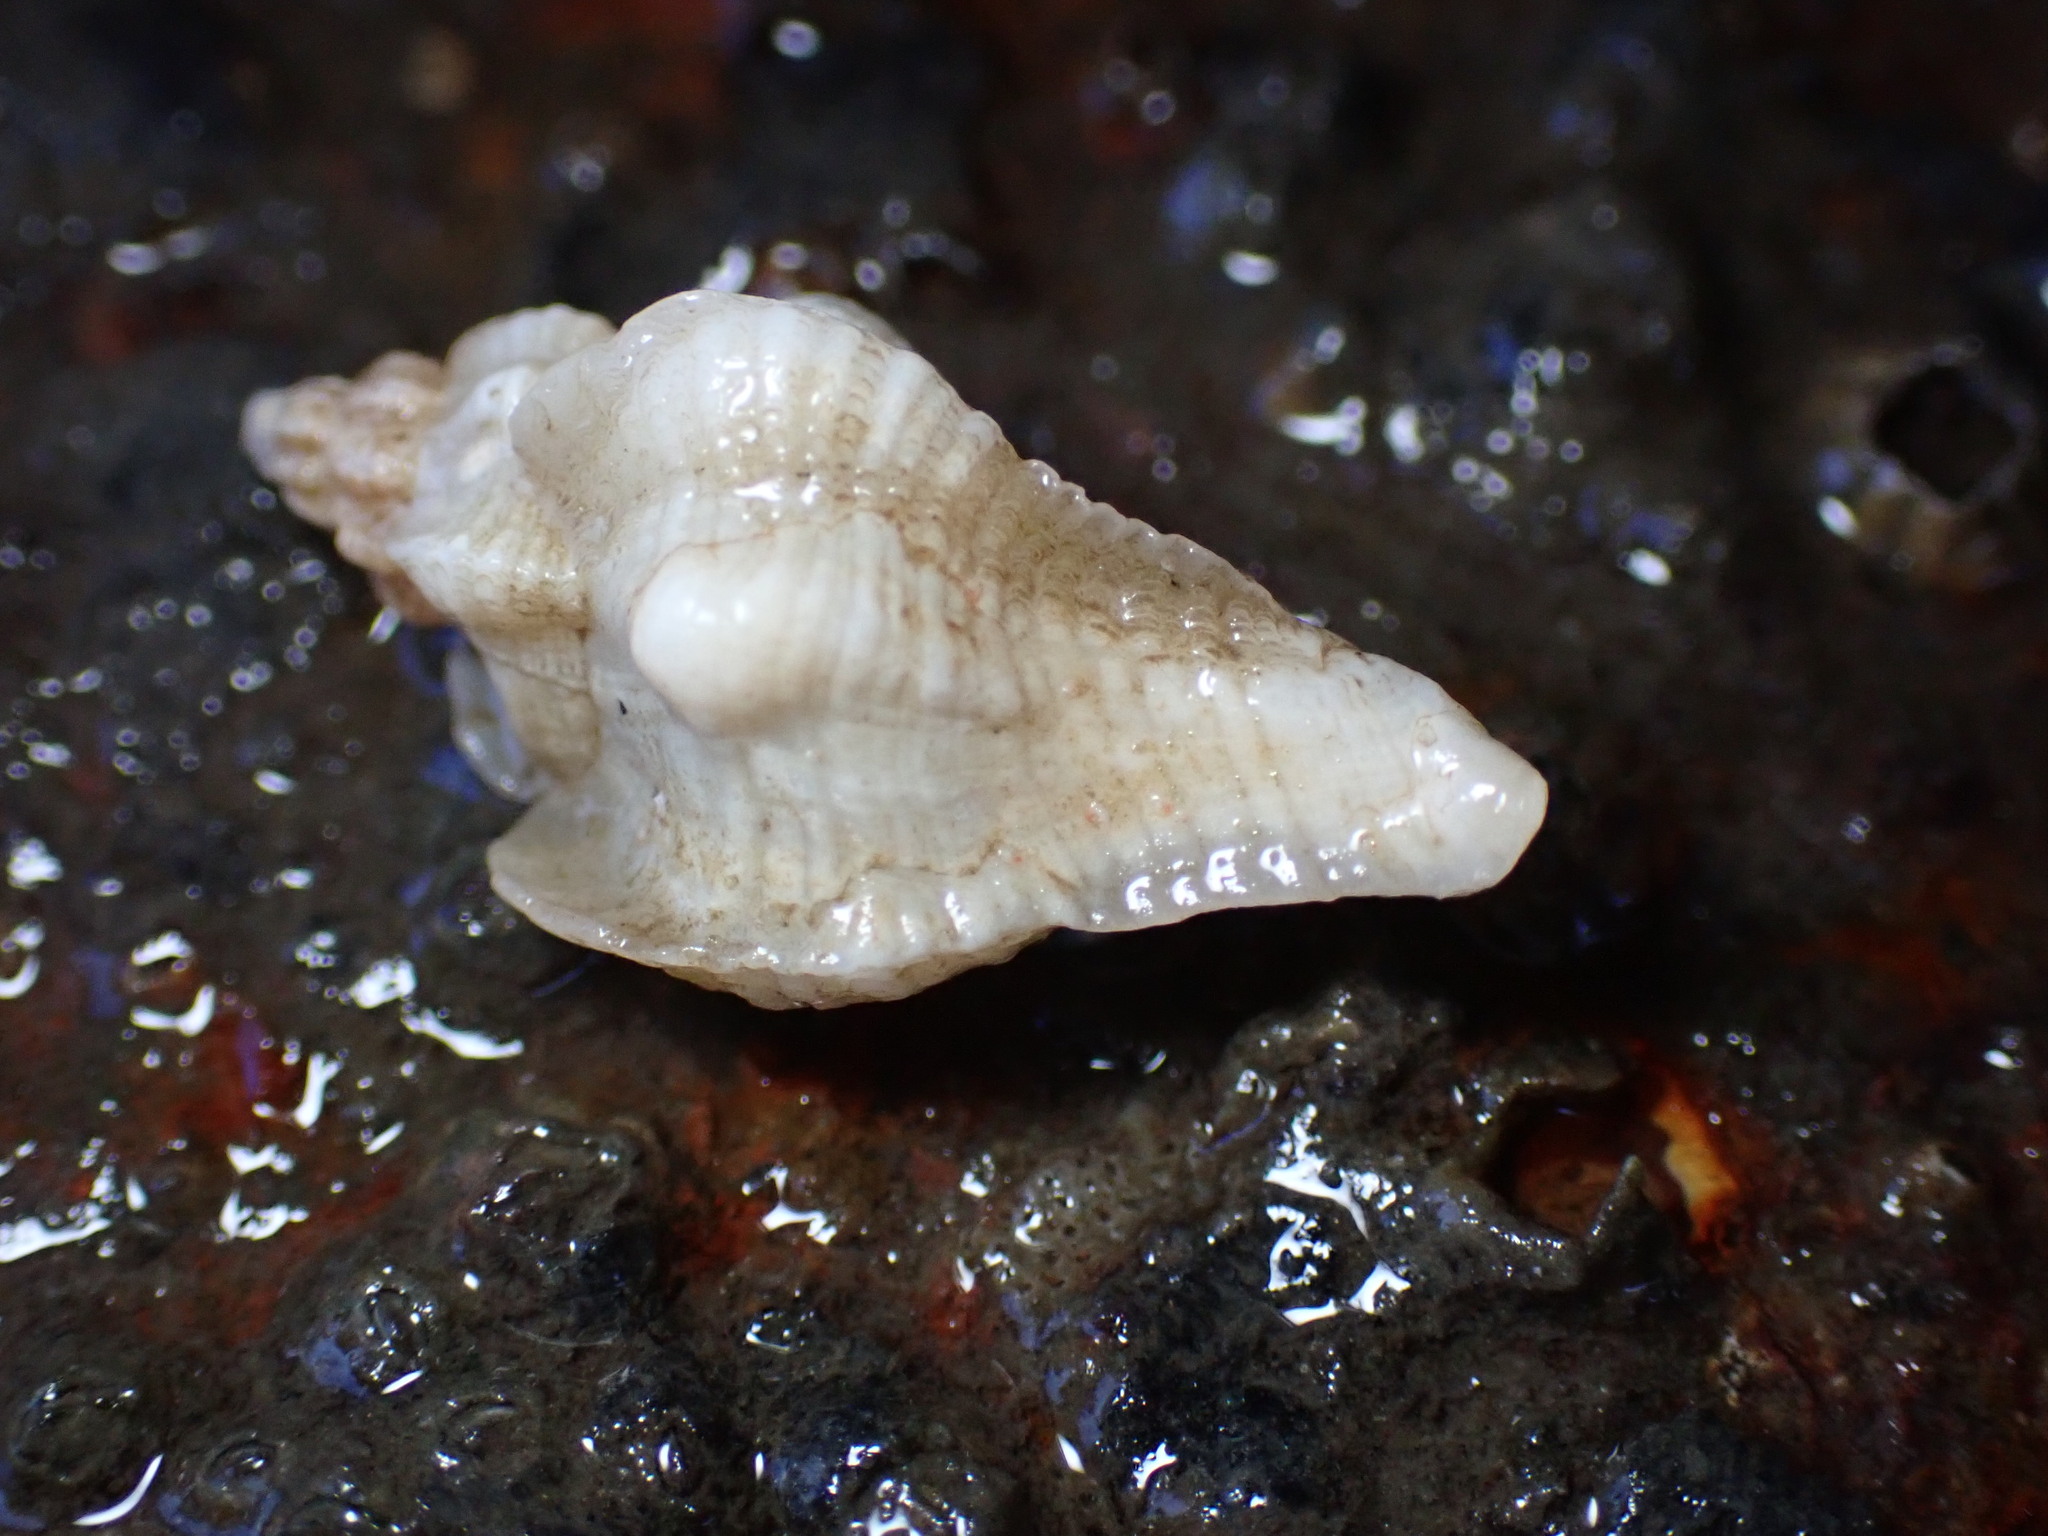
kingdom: Animalia
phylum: Mollusca
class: Gastropoda
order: Neogastropoda
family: Muricidae
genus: Pteropurpura
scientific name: Pteropurpura festiva
